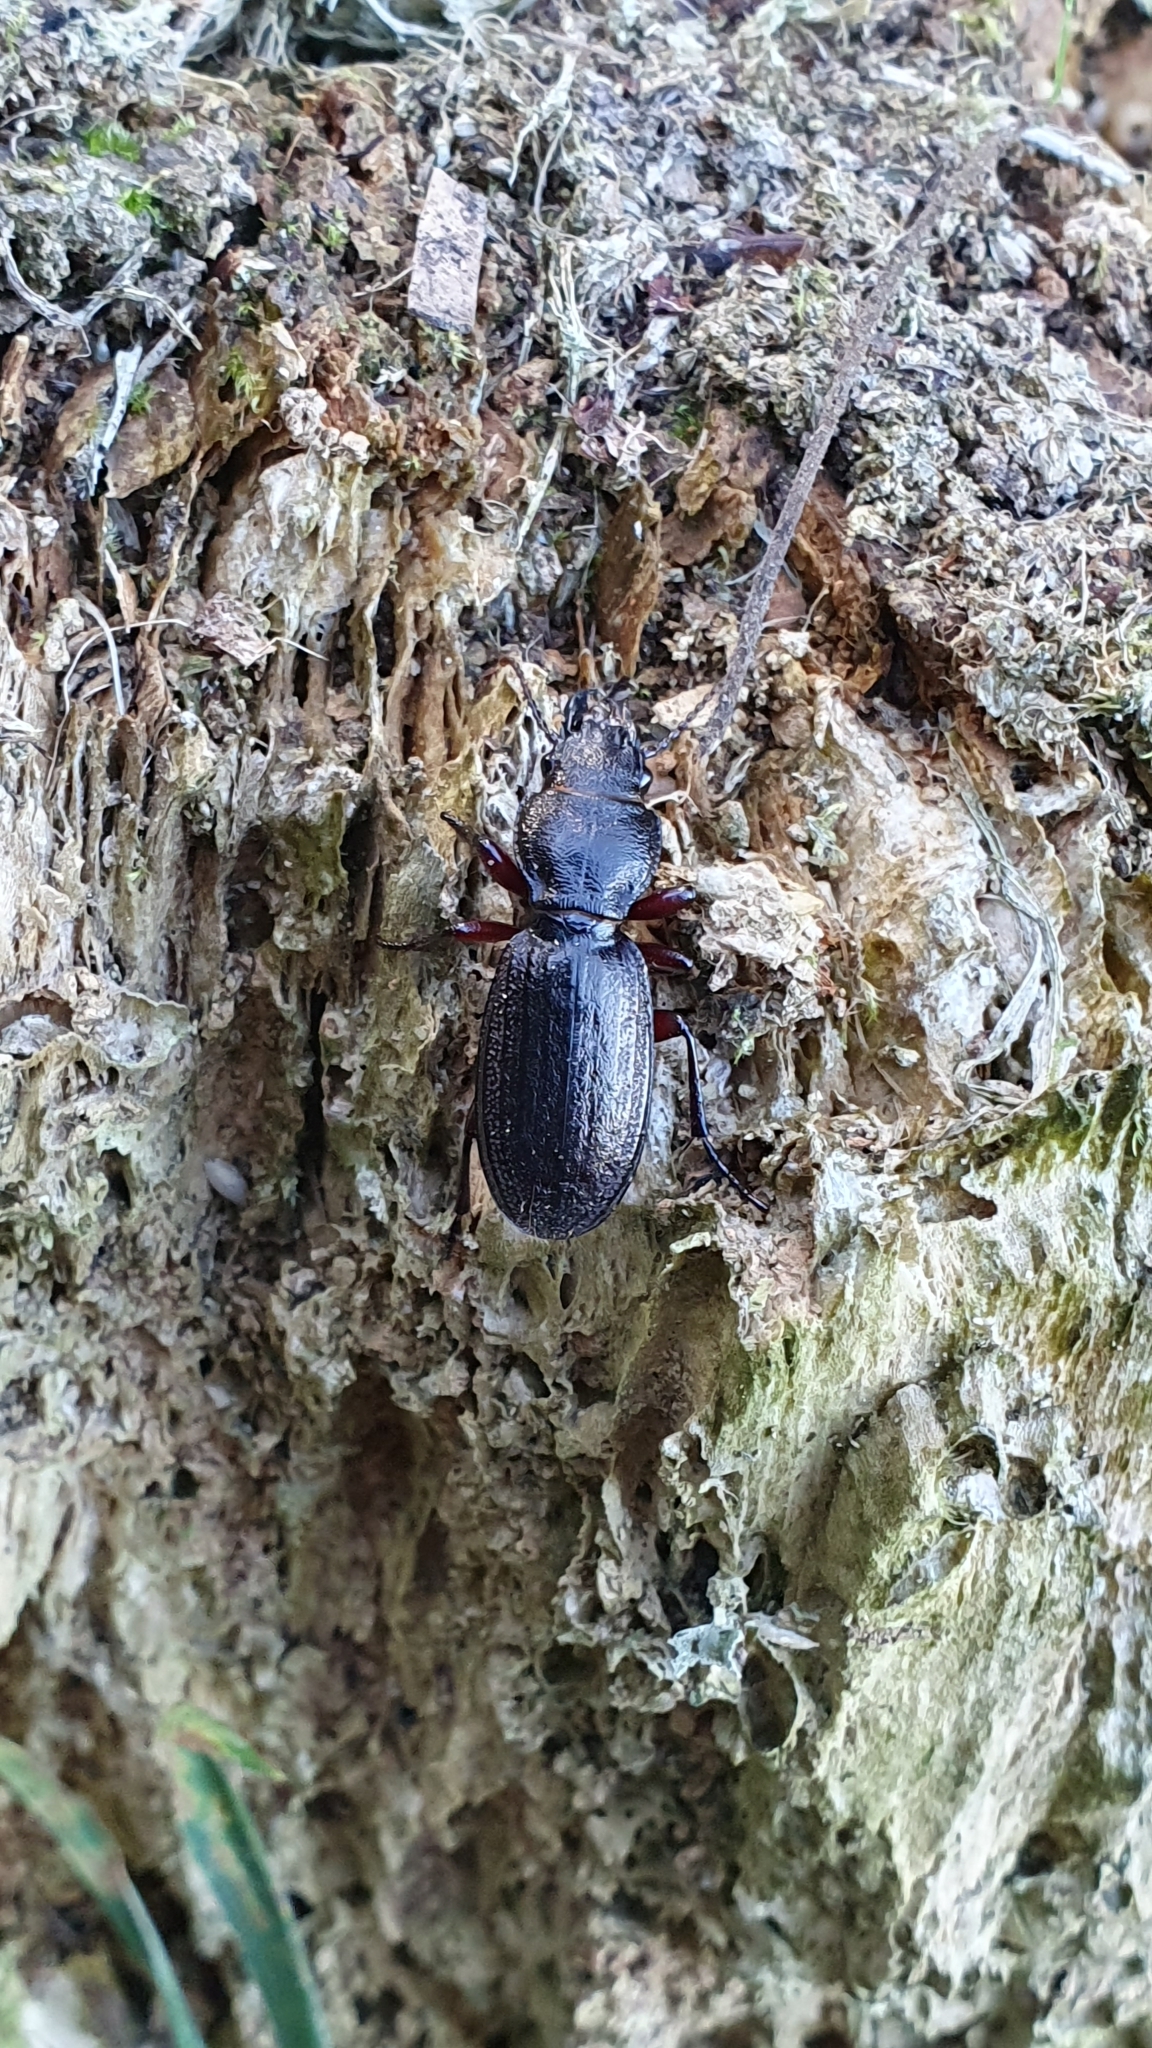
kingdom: Animalia
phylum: Arthropoda
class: Insecta
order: Coleoptera
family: Carabidae
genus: Mecodema
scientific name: Mecodema sculpturatum
